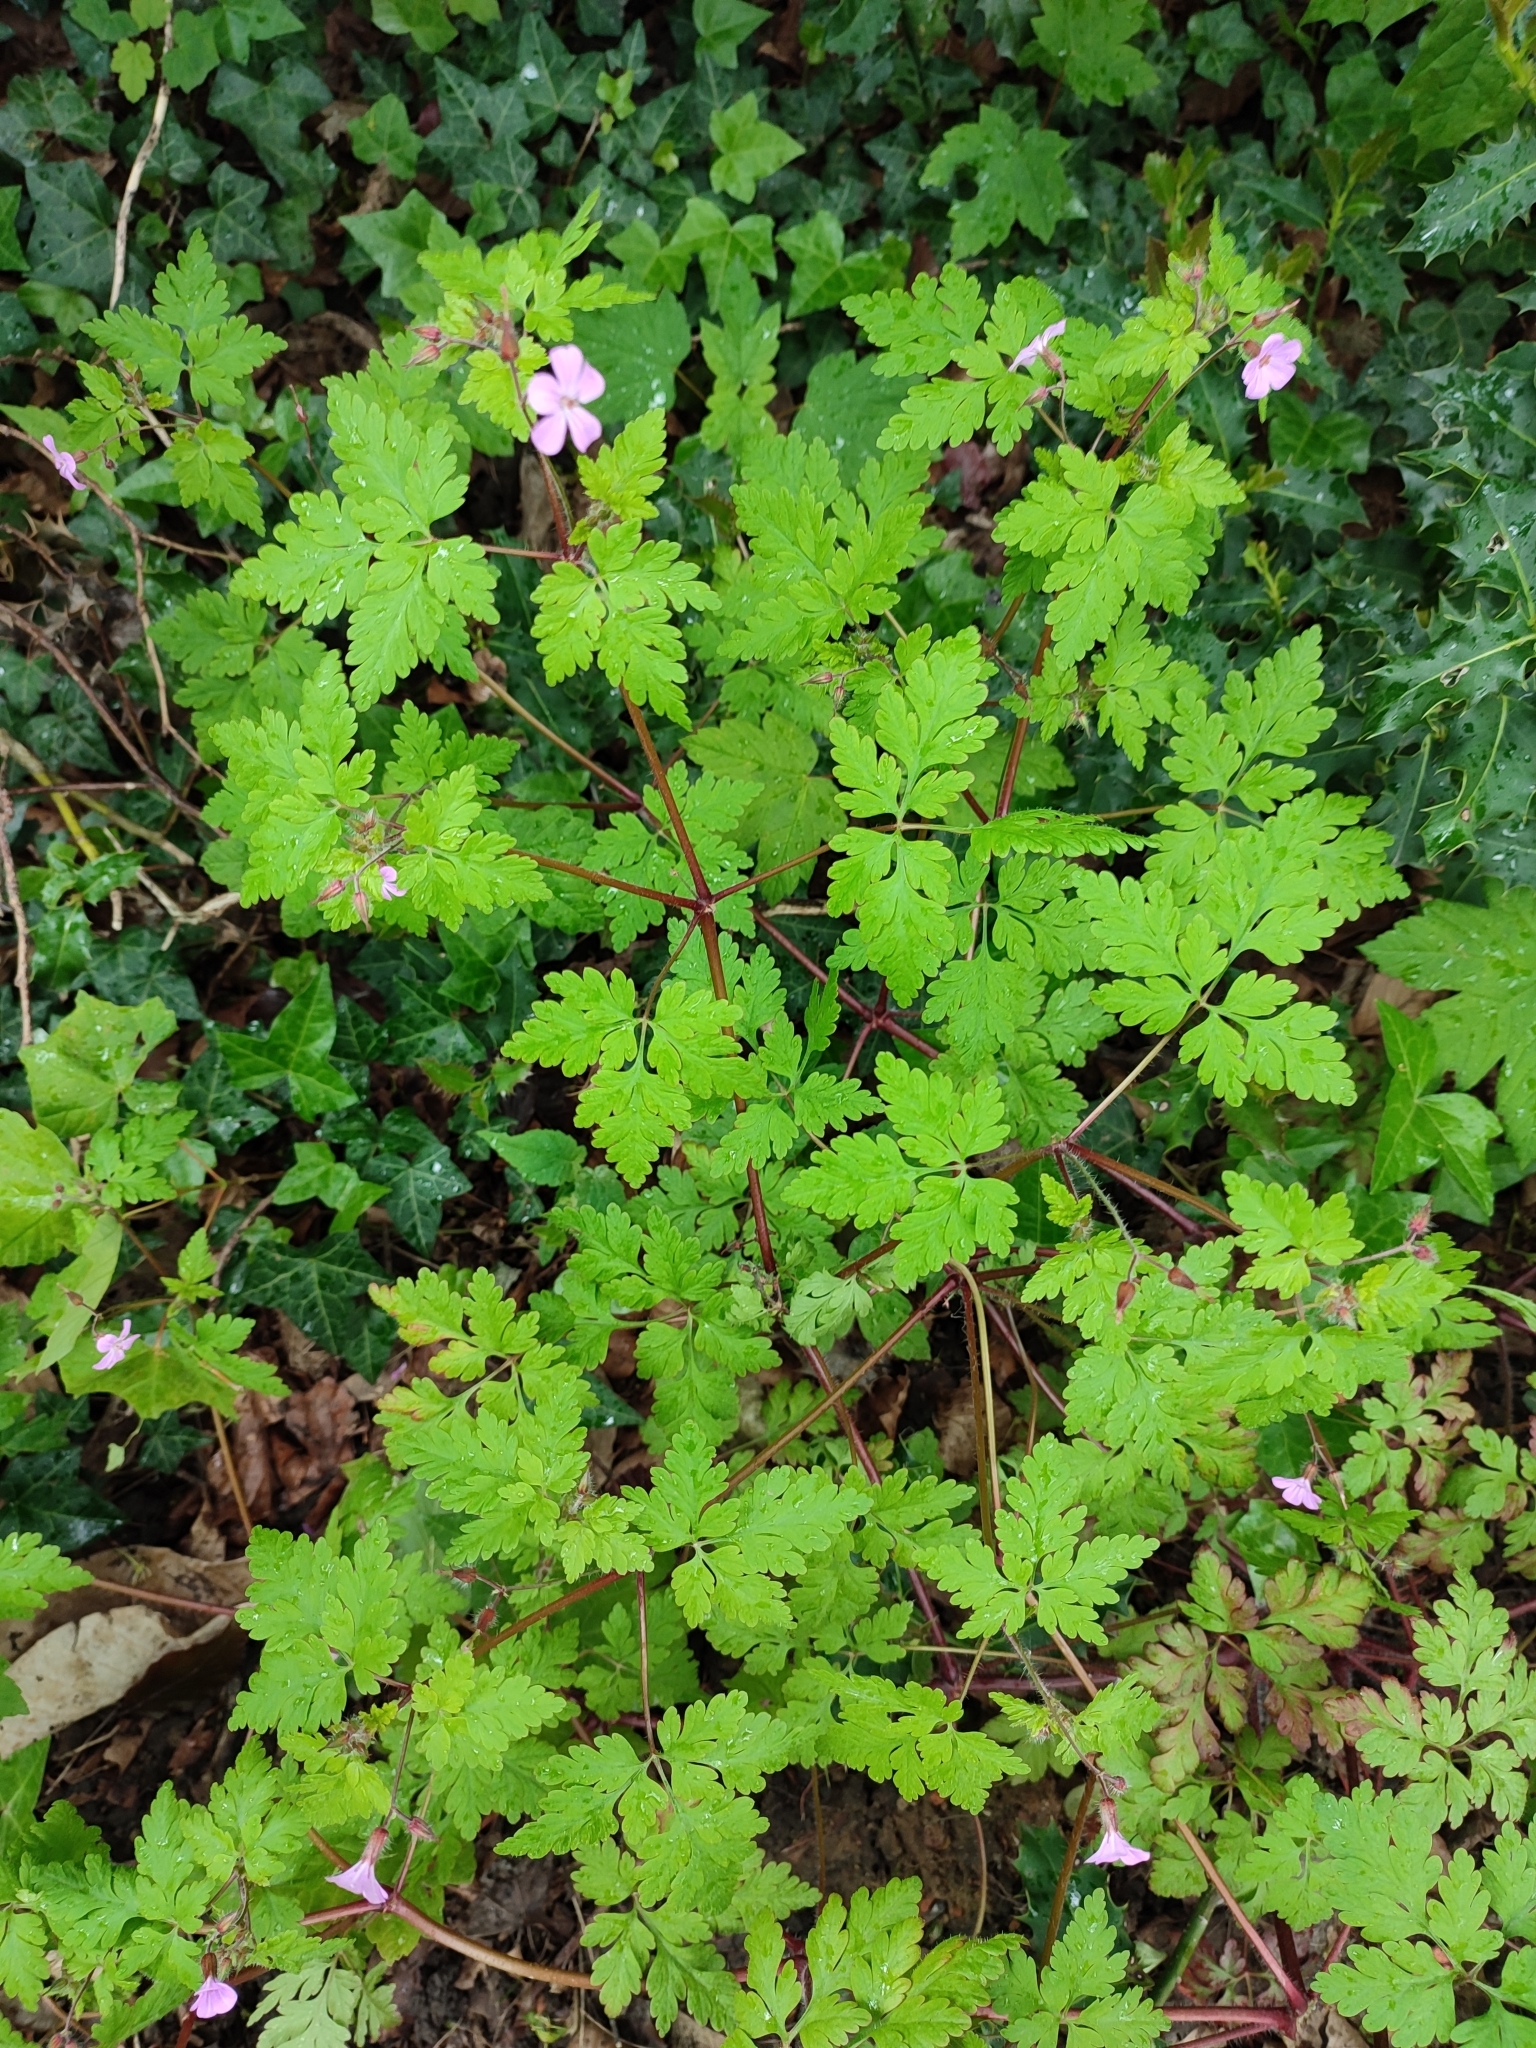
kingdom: Plantae
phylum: Tracheophyta
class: Magnoliopsida
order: Geraniales
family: Geraniaceae
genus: Geranium
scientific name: Geranium robertianum
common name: Herb-robert
